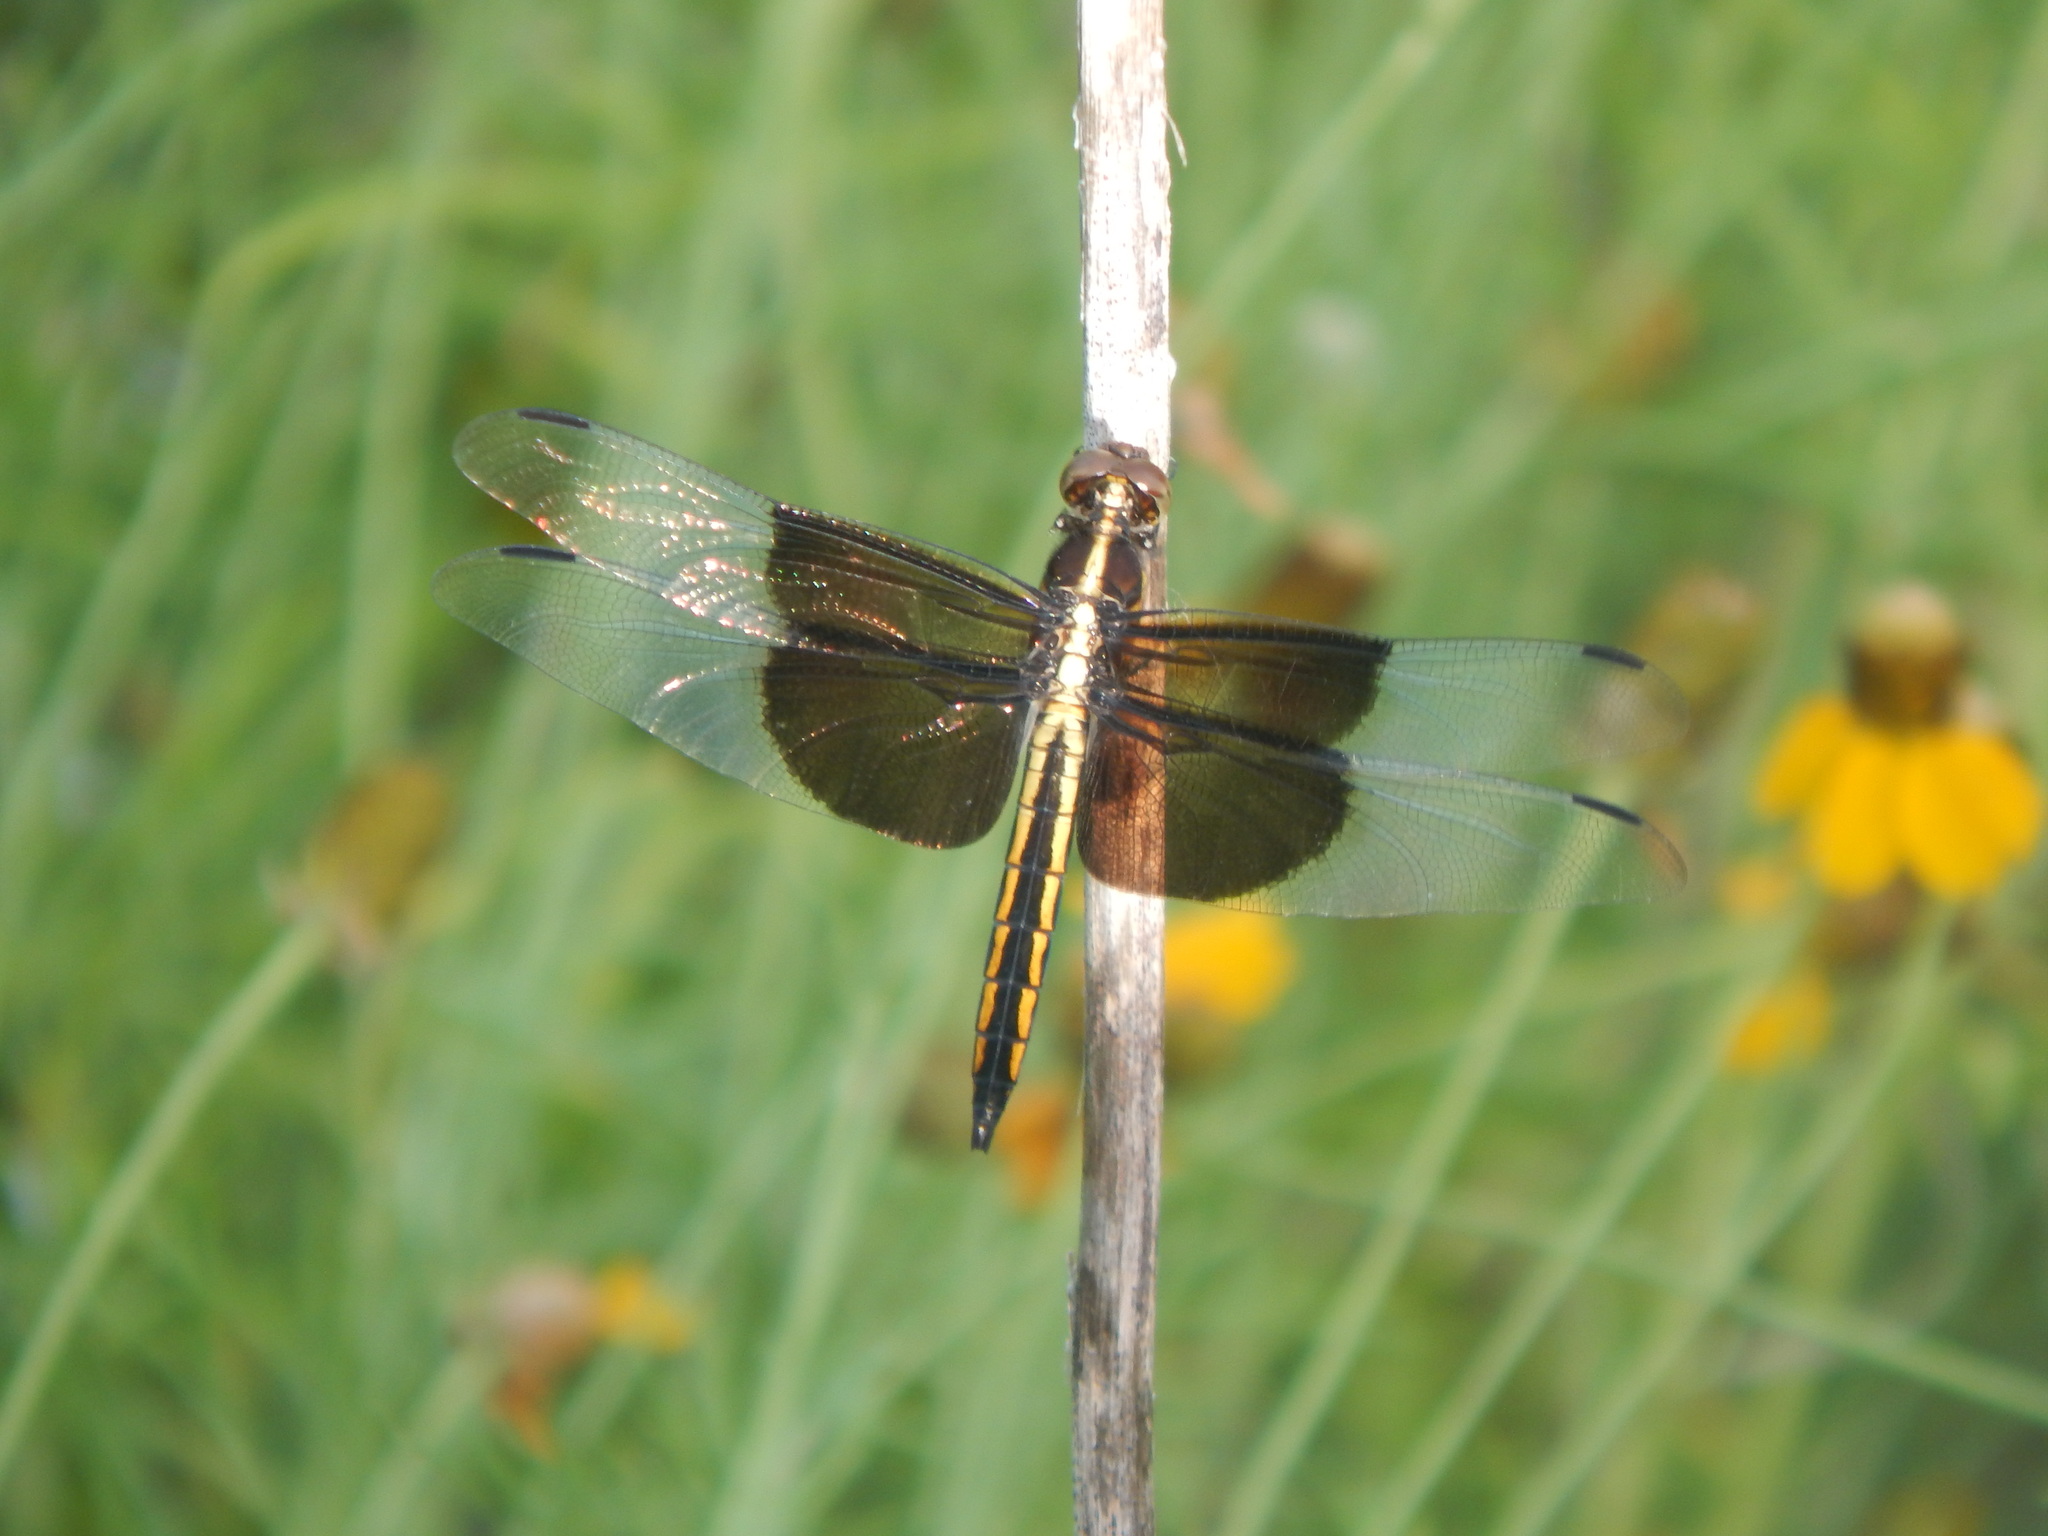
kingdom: Animalia
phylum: Arthropoda
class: Insecta
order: Odonata
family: Libellulidae
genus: Libellula
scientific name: Libellula luctuosa
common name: Widow skimmer
